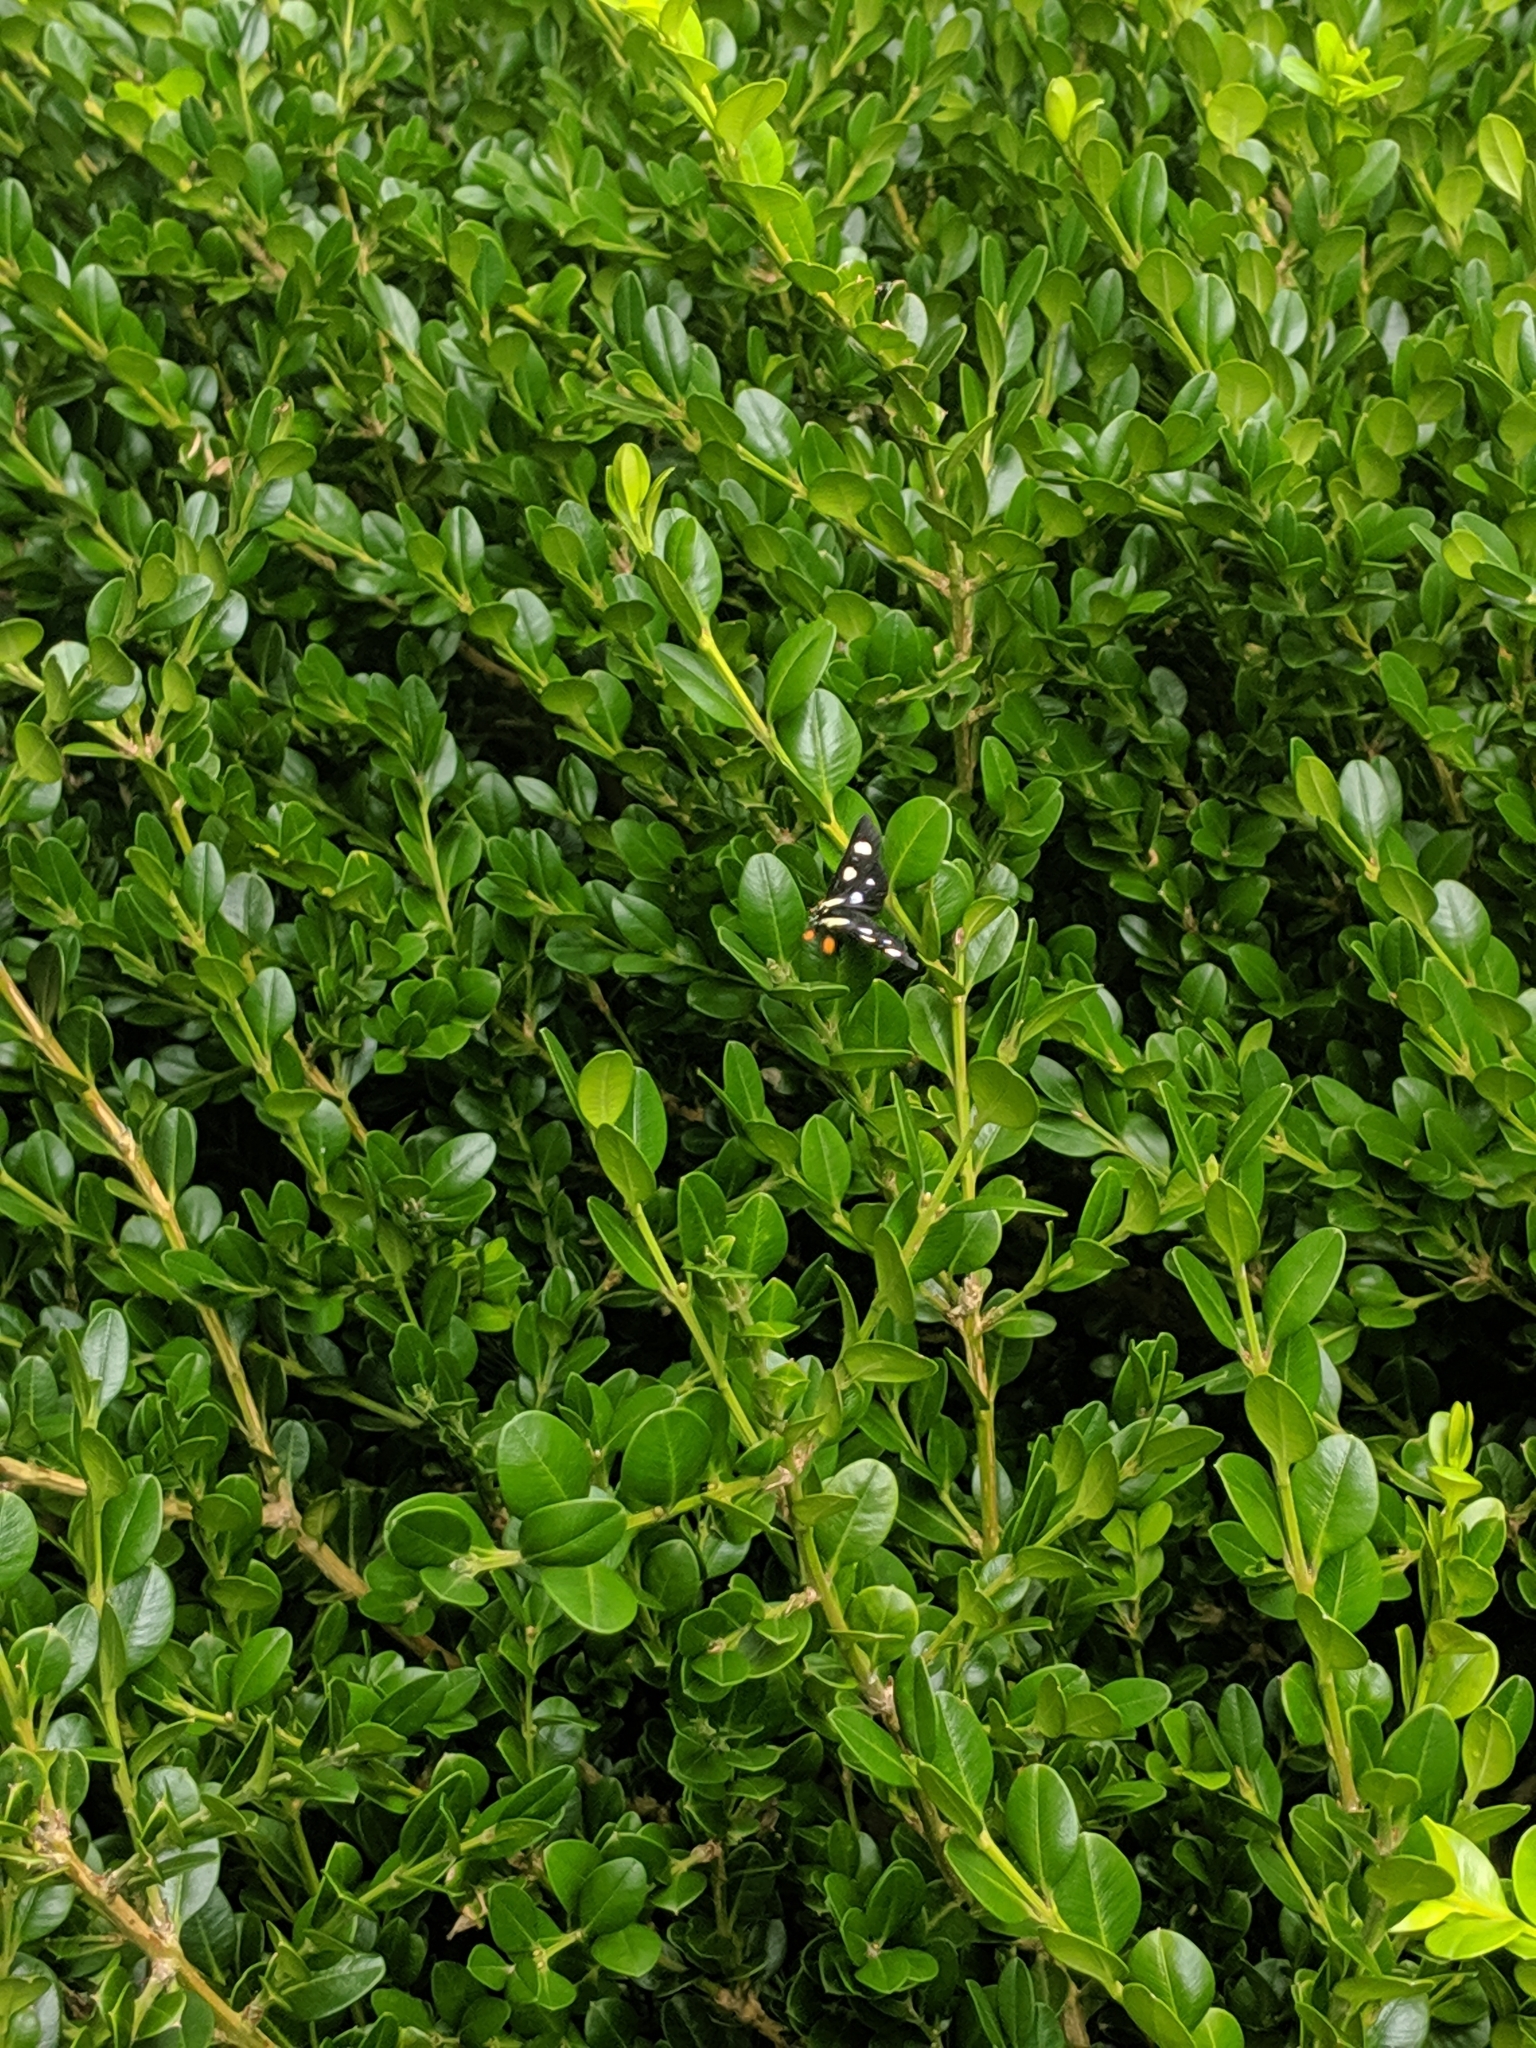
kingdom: Animalia
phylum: Arthropoda
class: Insecta
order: Lepidoptera
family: Noctuidae
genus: Alypia
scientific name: Alypia octomaculata
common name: Eight-spotted forester
